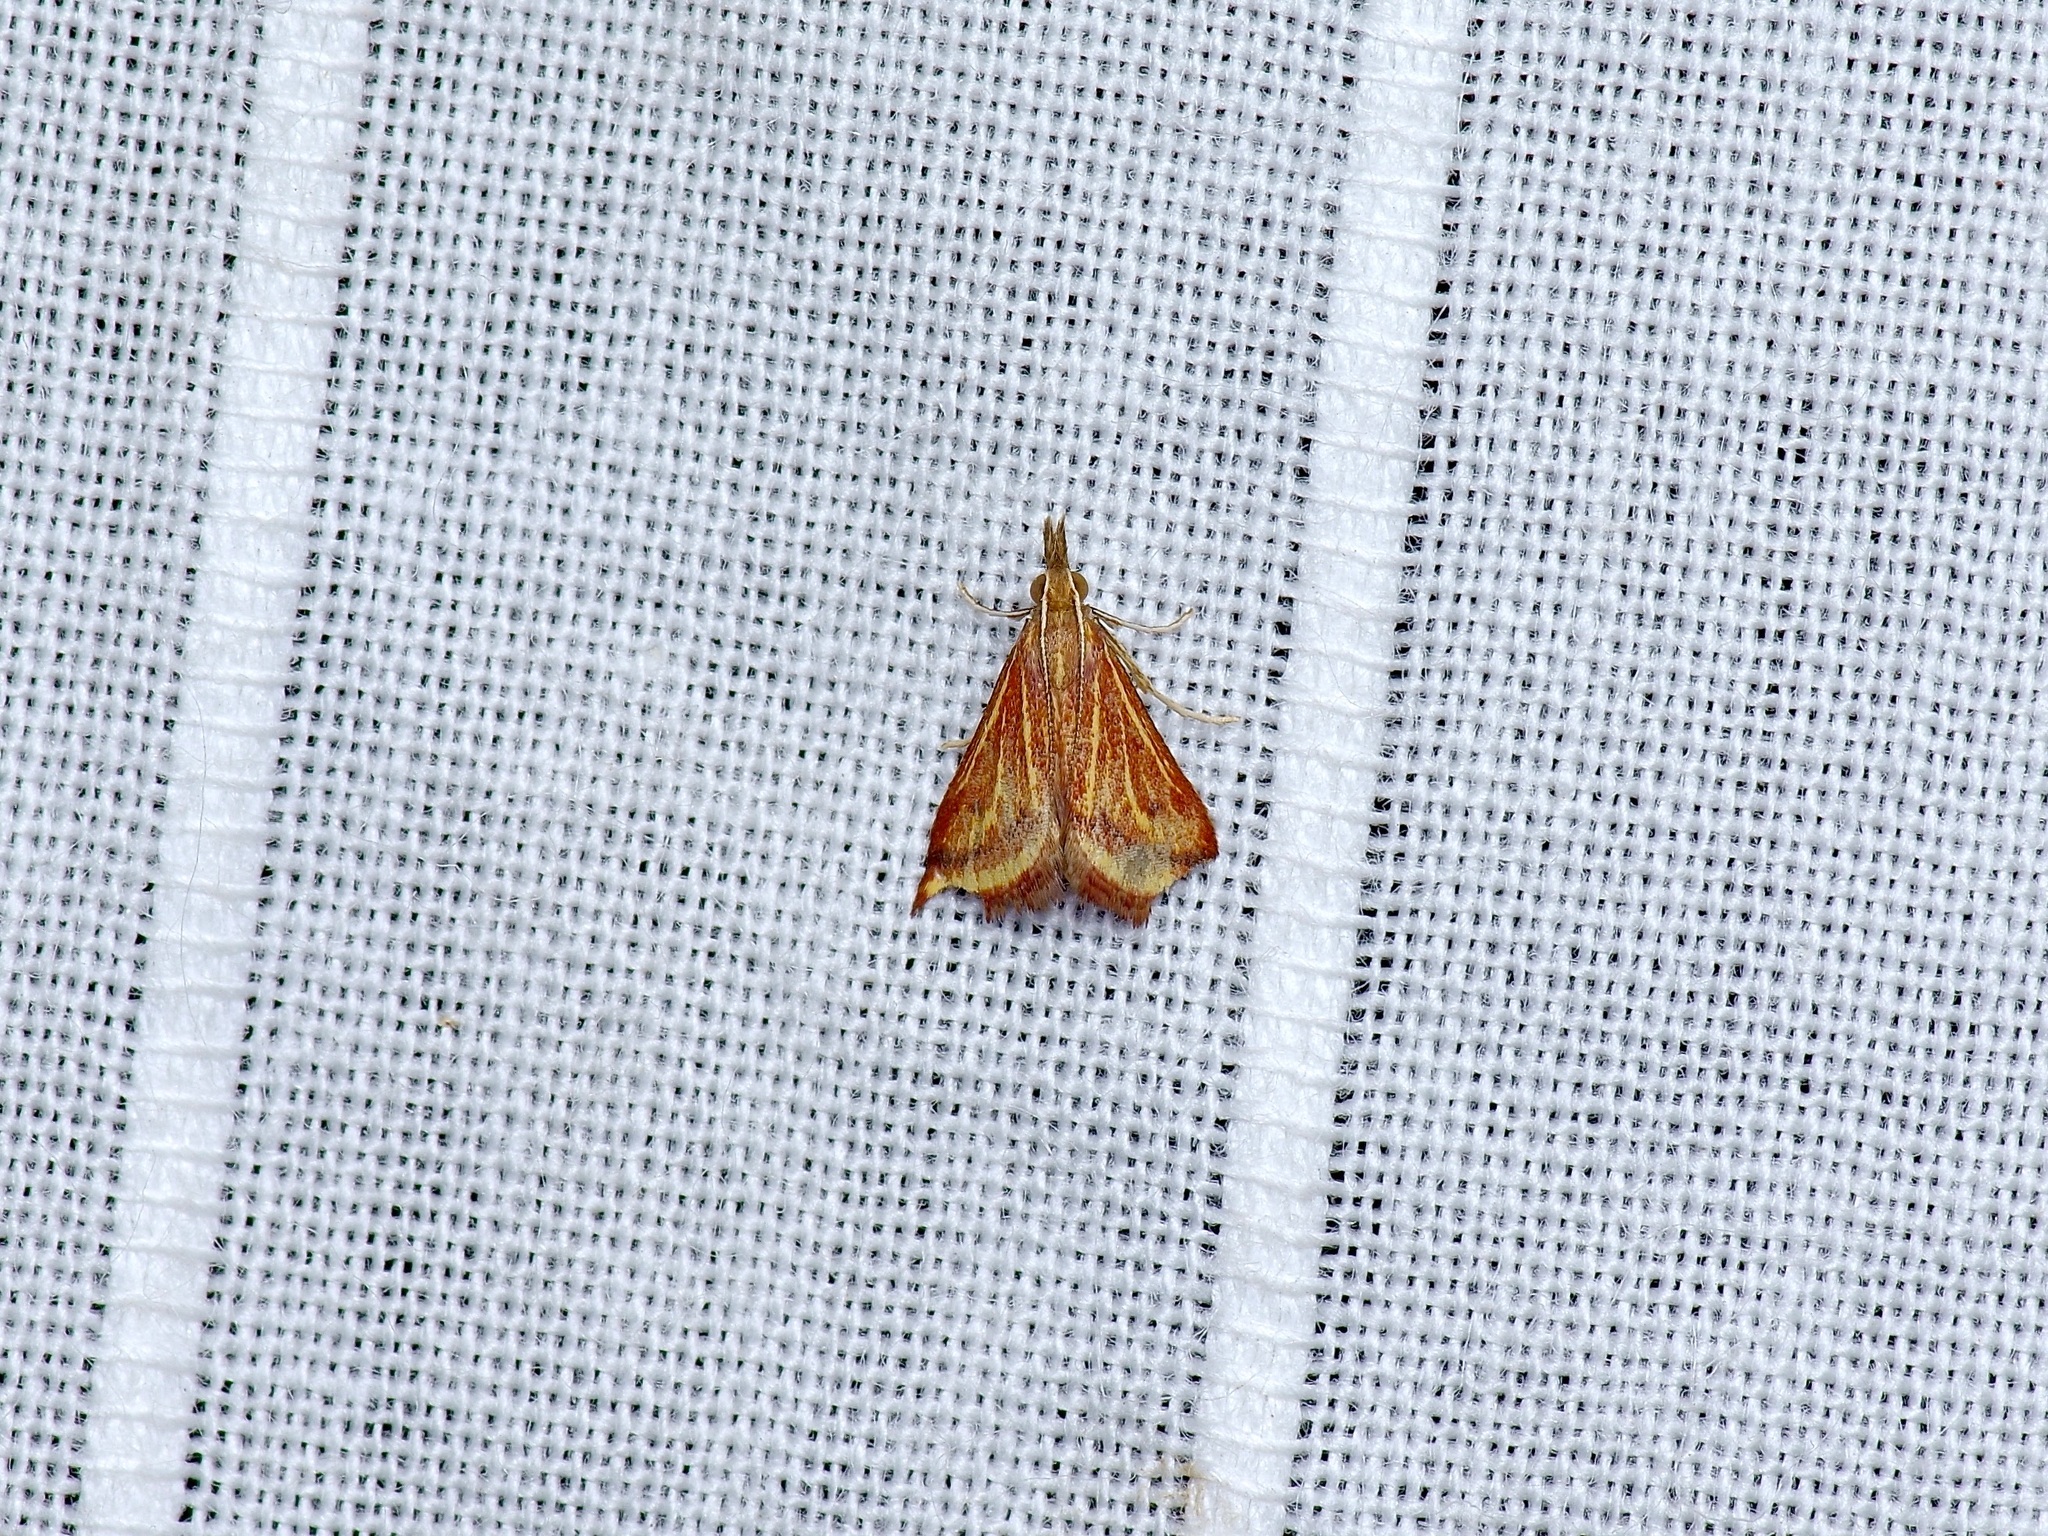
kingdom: Animalia
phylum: Arthropoda
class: Insecta
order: Lepidoptera
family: Crambidae
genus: Microtheoris
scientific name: Microtheoris ophionalis
